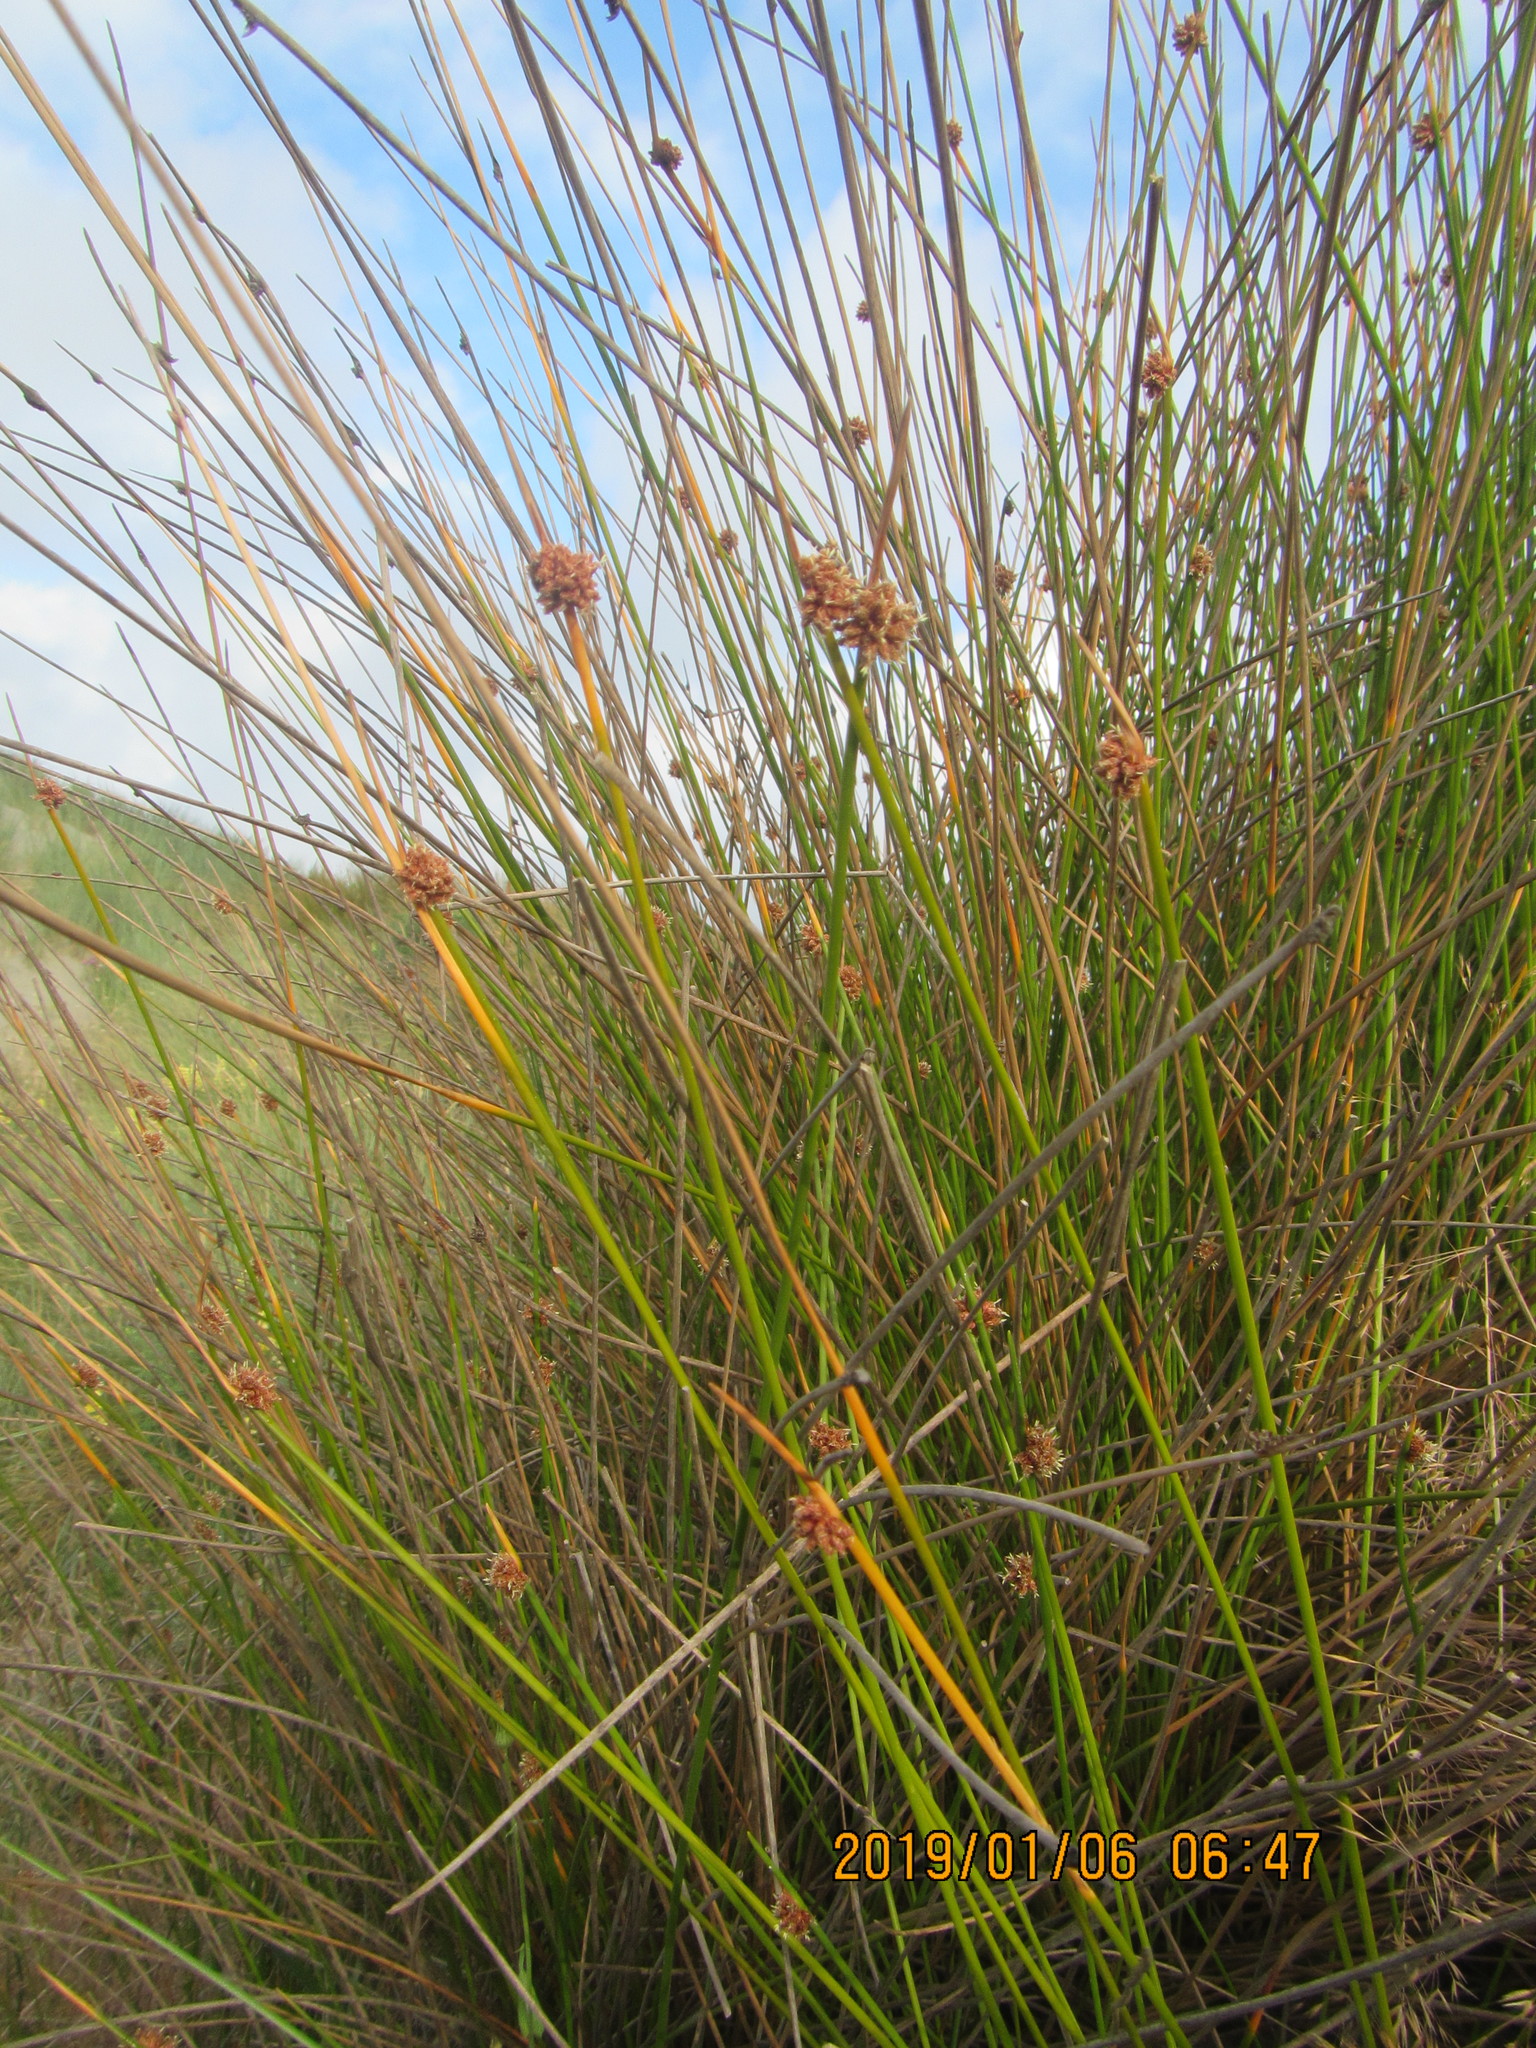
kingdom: Plantae
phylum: Tracheophyta
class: Liliopsida
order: Poales
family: Cyperaceae
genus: Ficinia
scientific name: Ficinia nodosa
